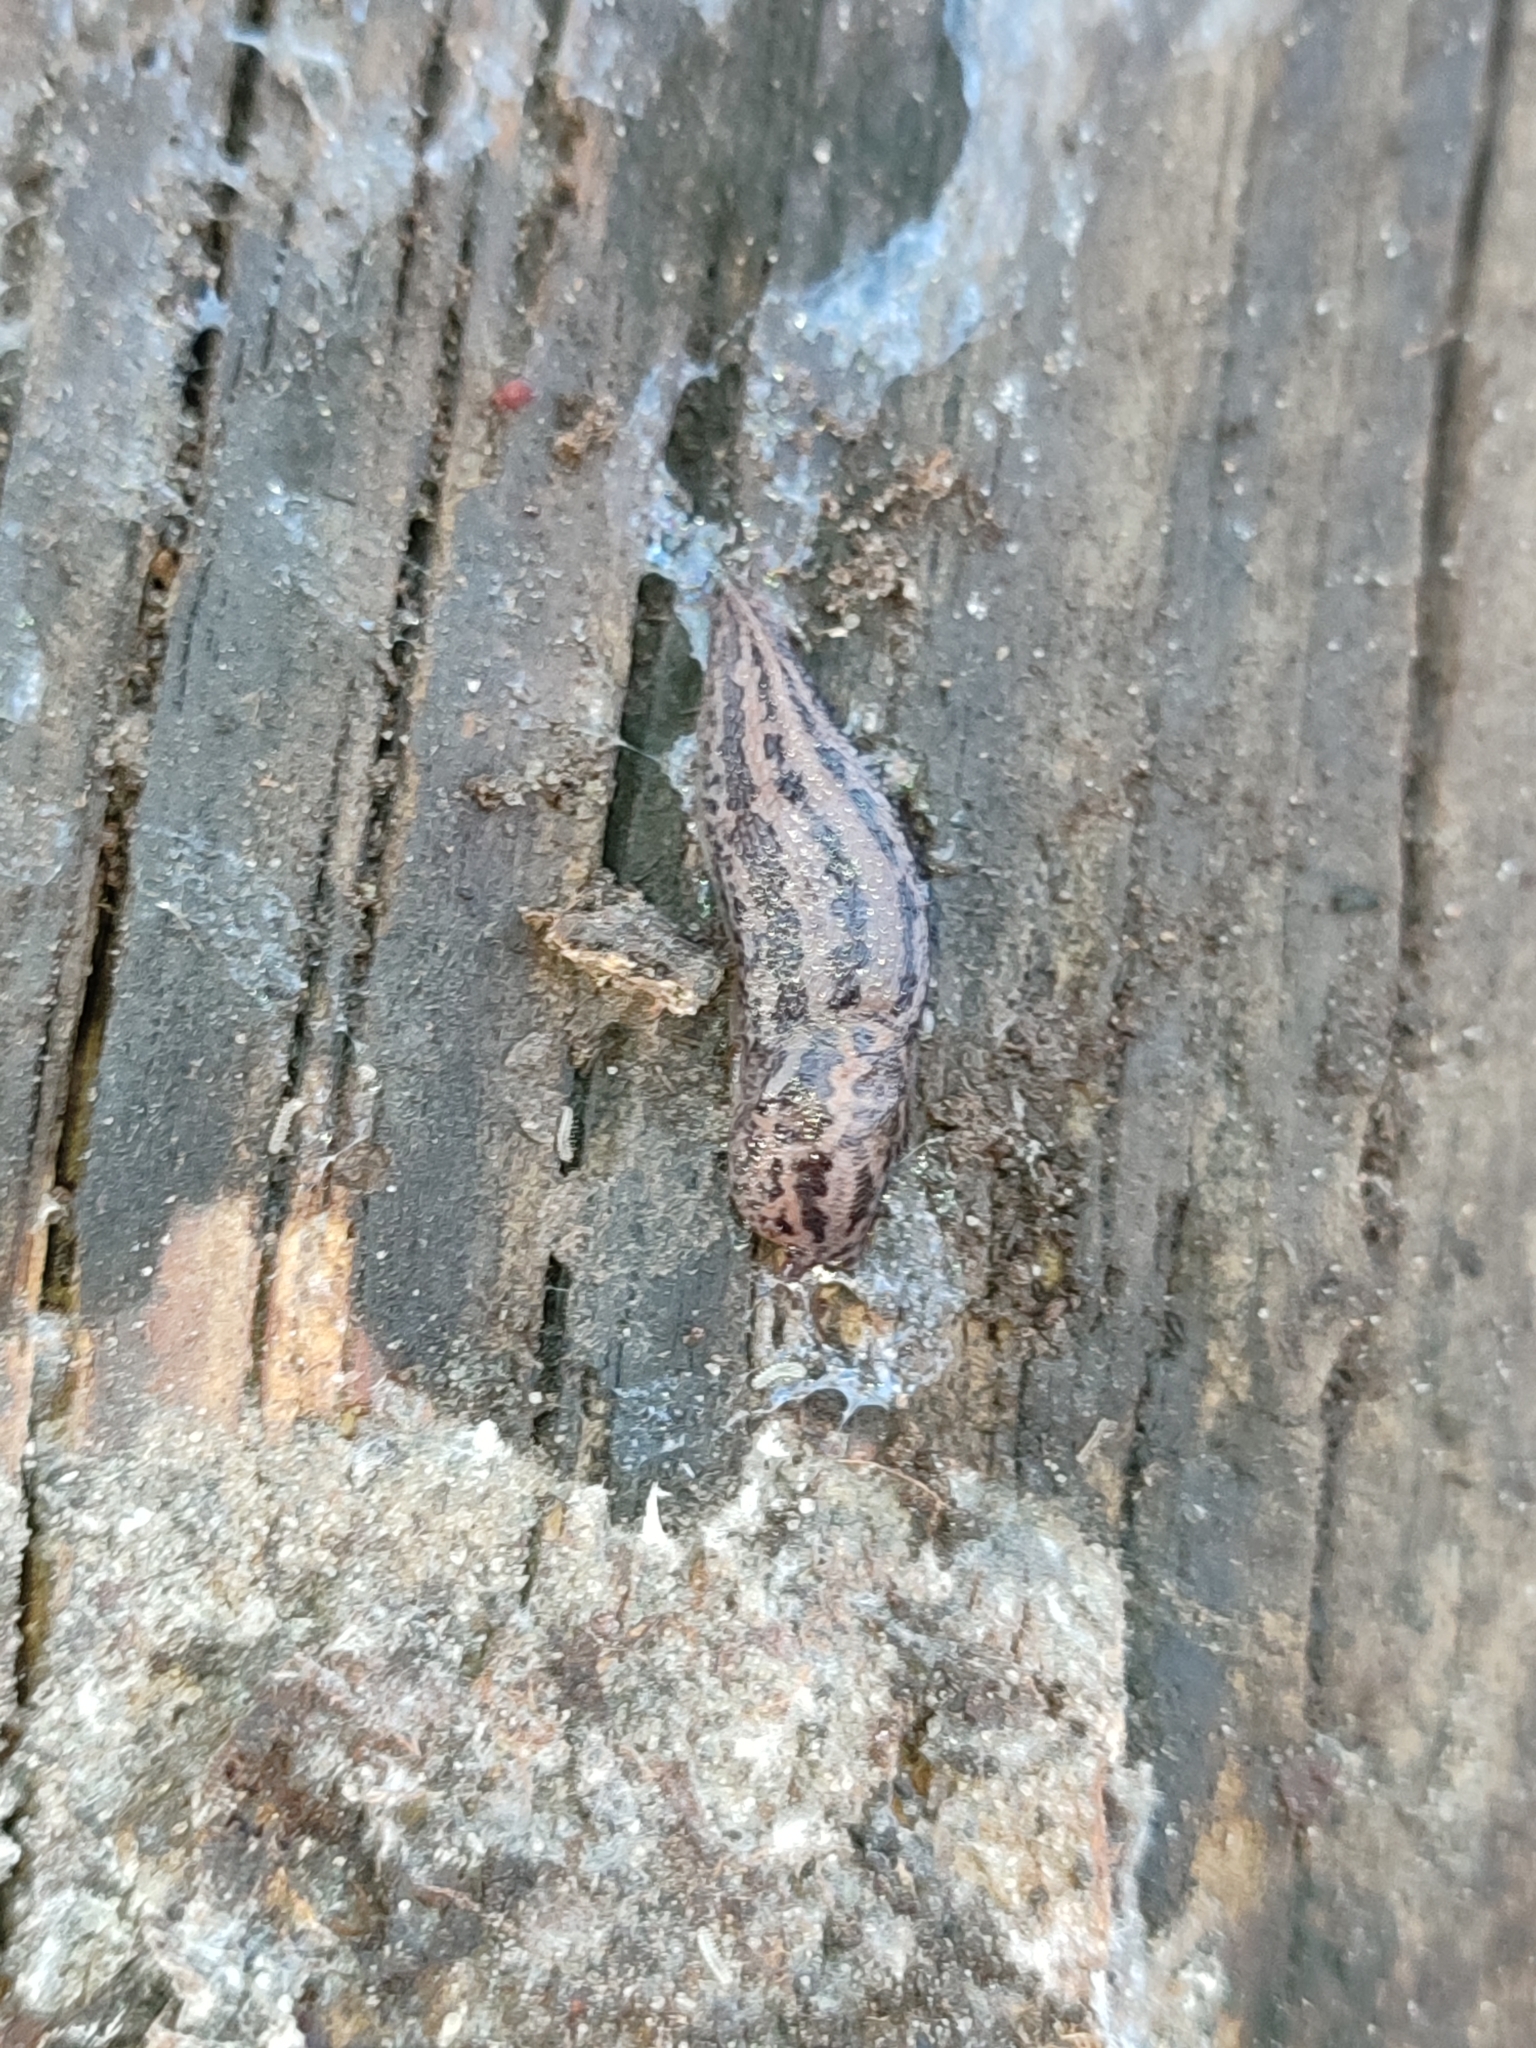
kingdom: Animalia
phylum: Mollusca
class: Gastropoda
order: Stylommatophora
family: Limacidae
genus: Limax
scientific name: Limax maximus
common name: Great grey slug
